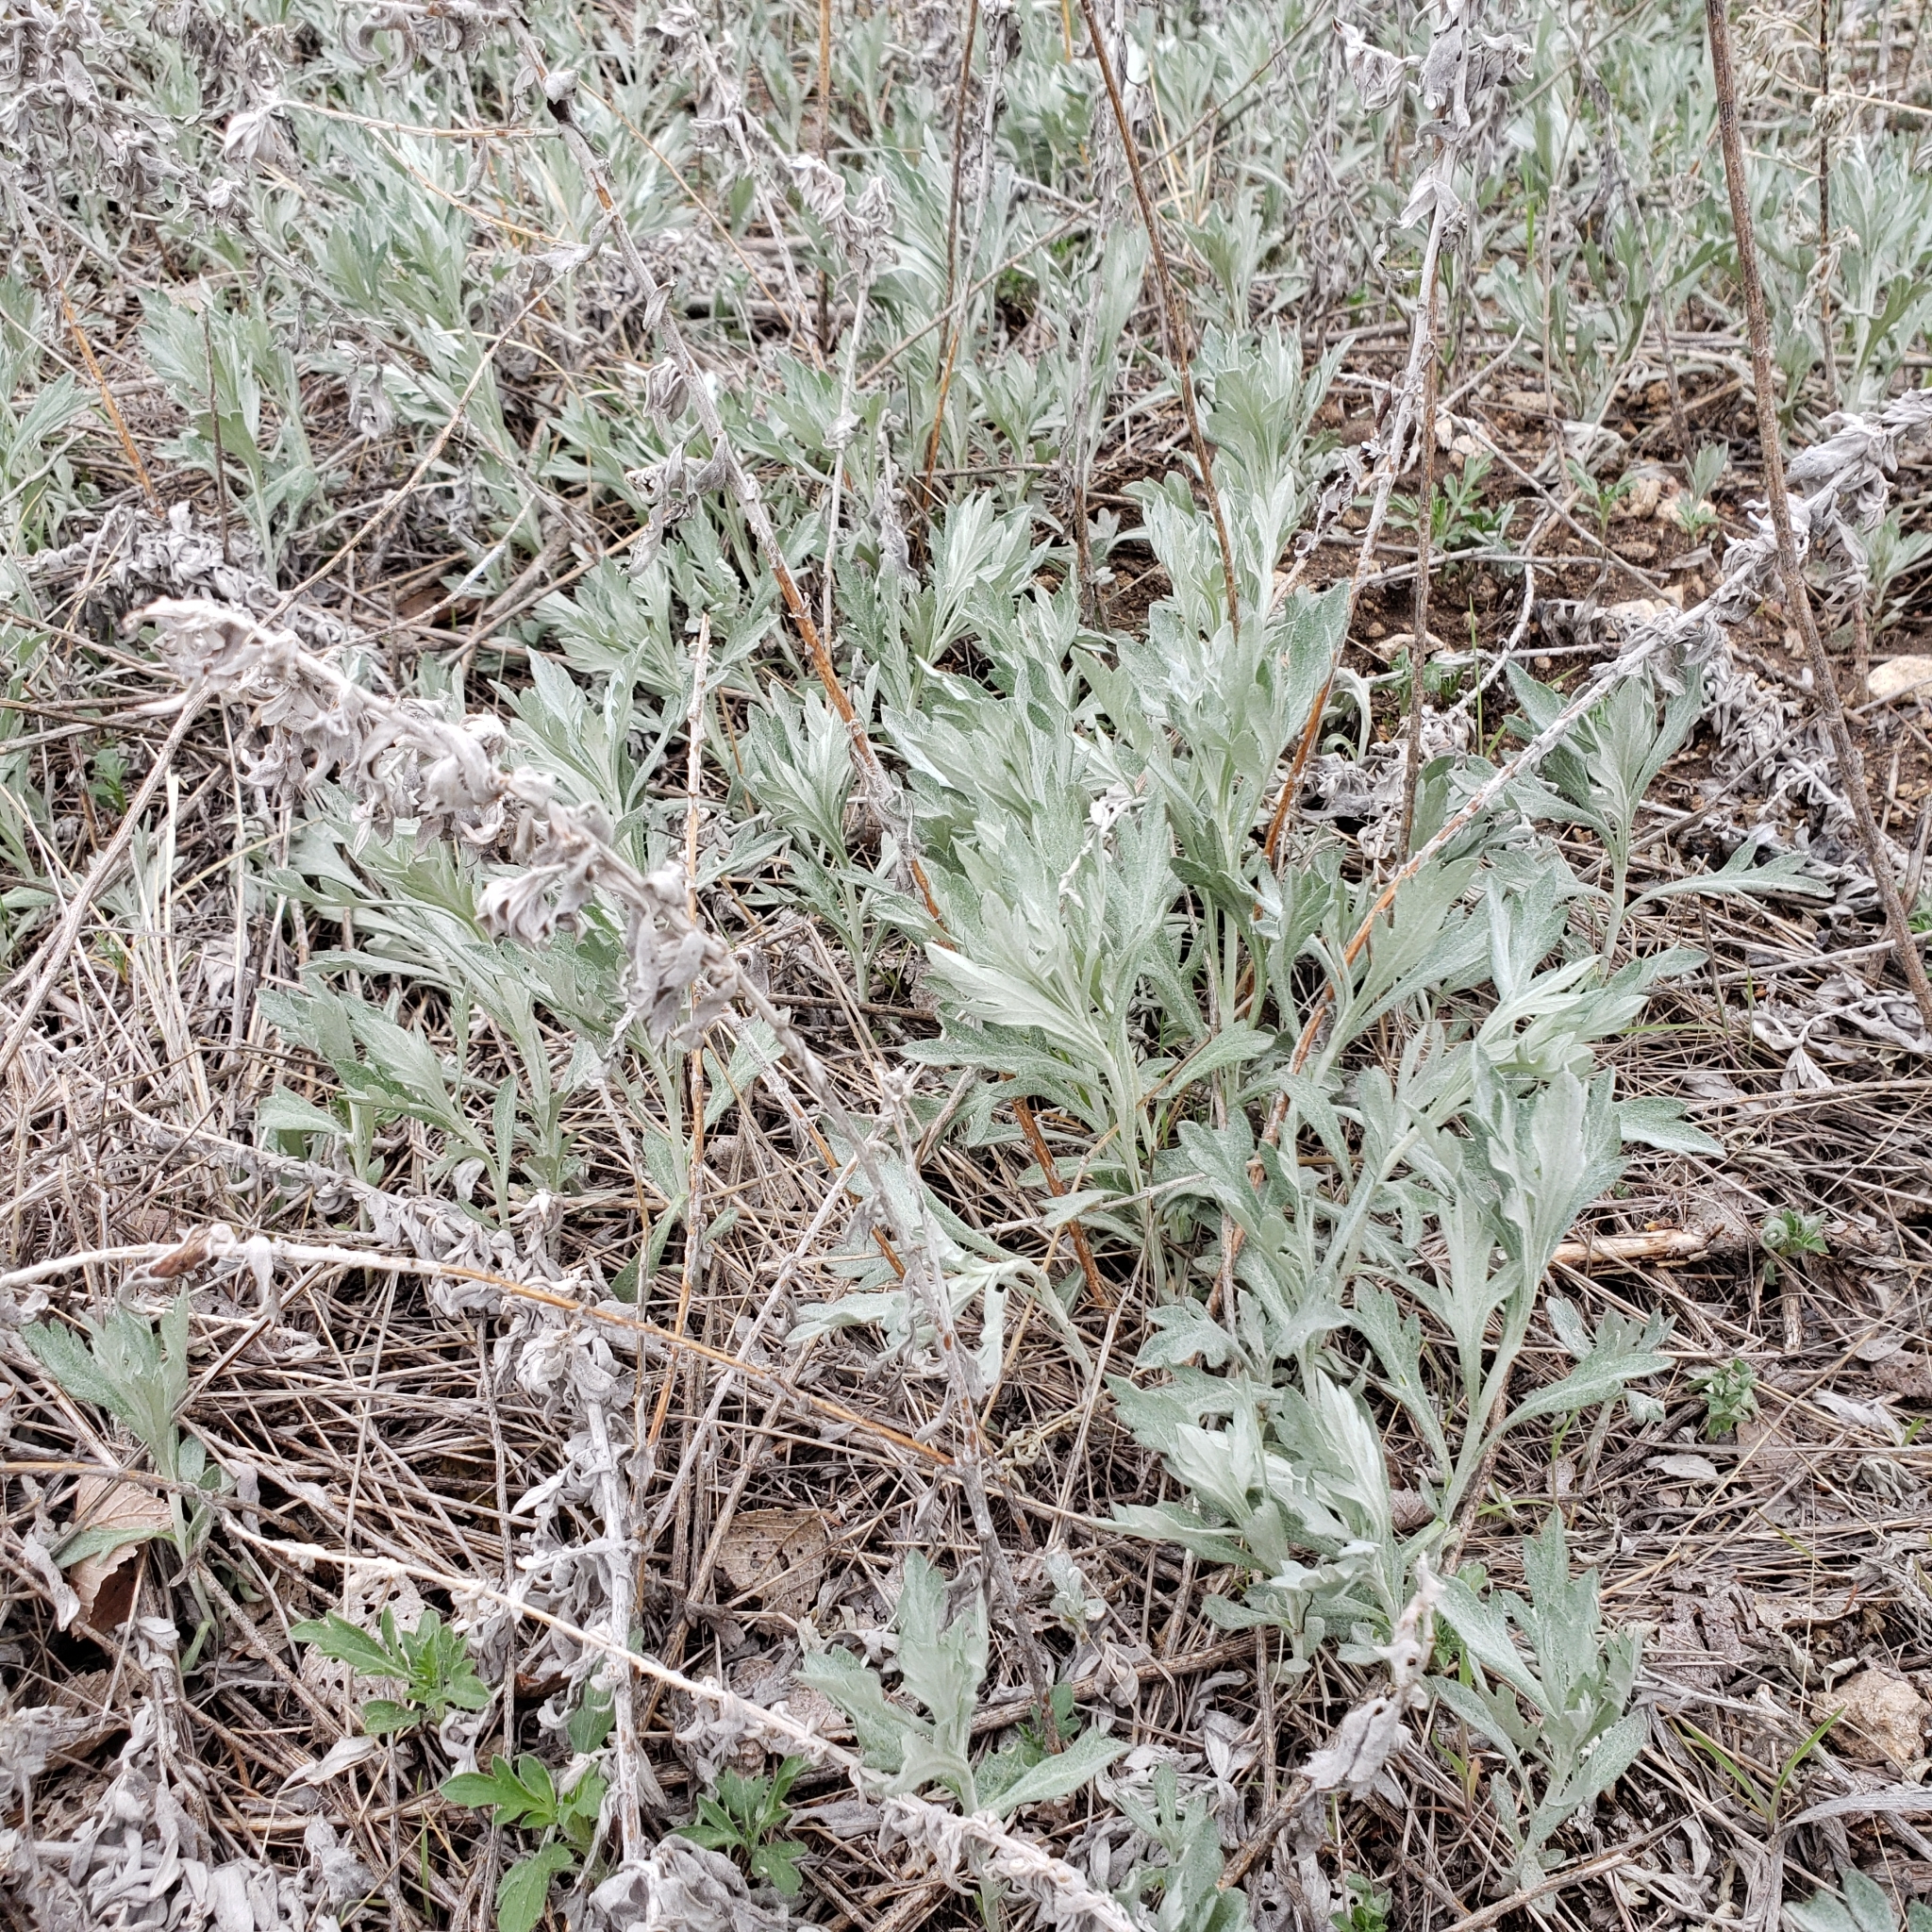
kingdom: Plantae
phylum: Tracheophyta
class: Magnoliopsida
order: Asterales
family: Asteraceae
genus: Artemisia
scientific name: Artemisia ludoviciana
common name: Western mugwort
